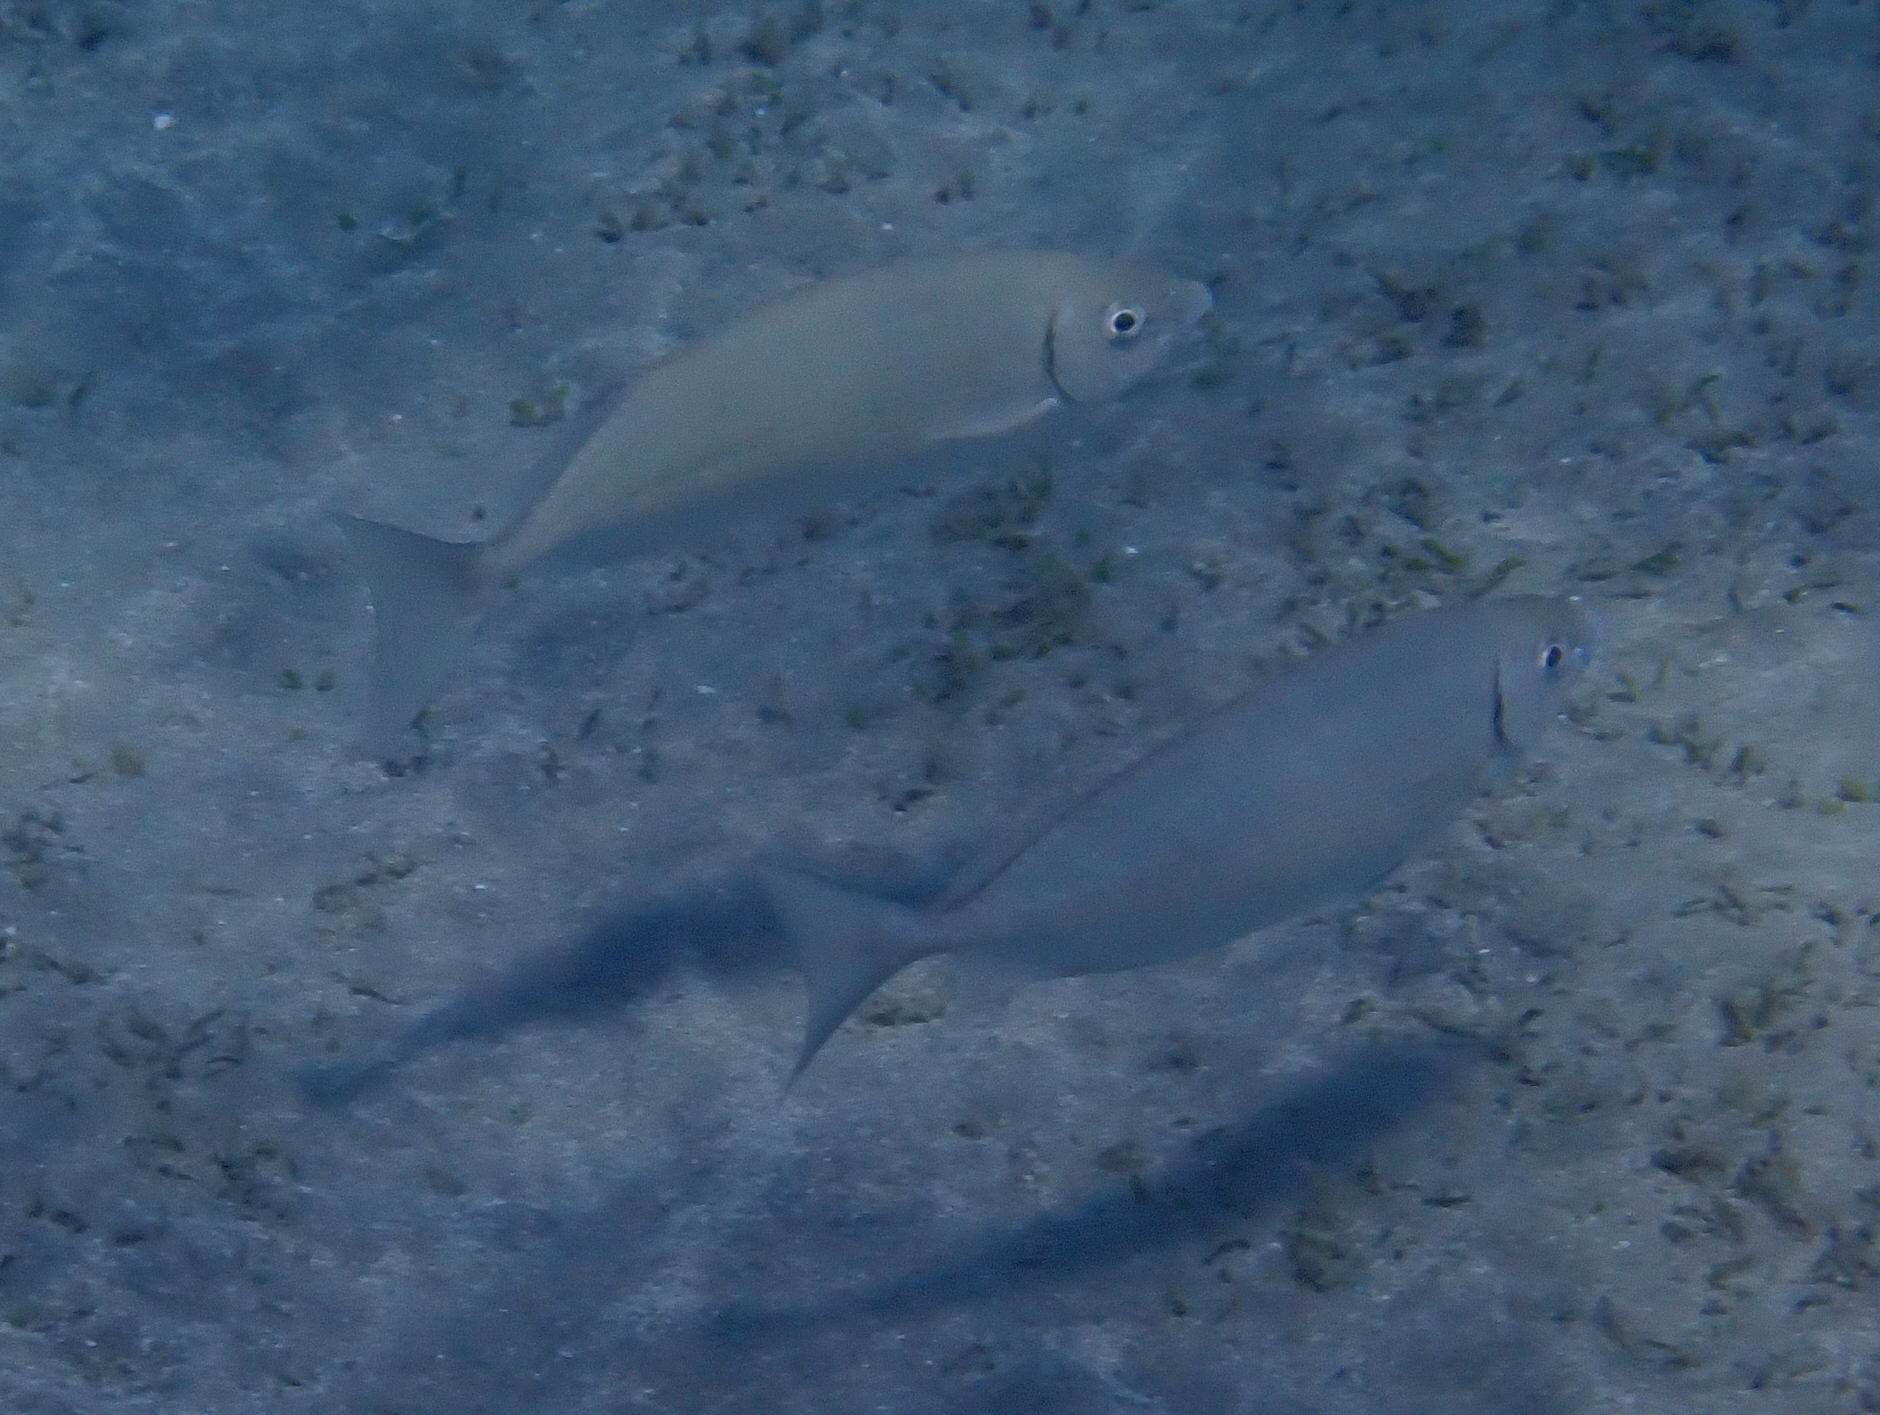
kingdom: Animalia
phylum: Chordata
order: Perciformes
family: Siganidae
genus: Siganus
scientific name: Siganus rivulatus
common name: Marbled spinefoot
